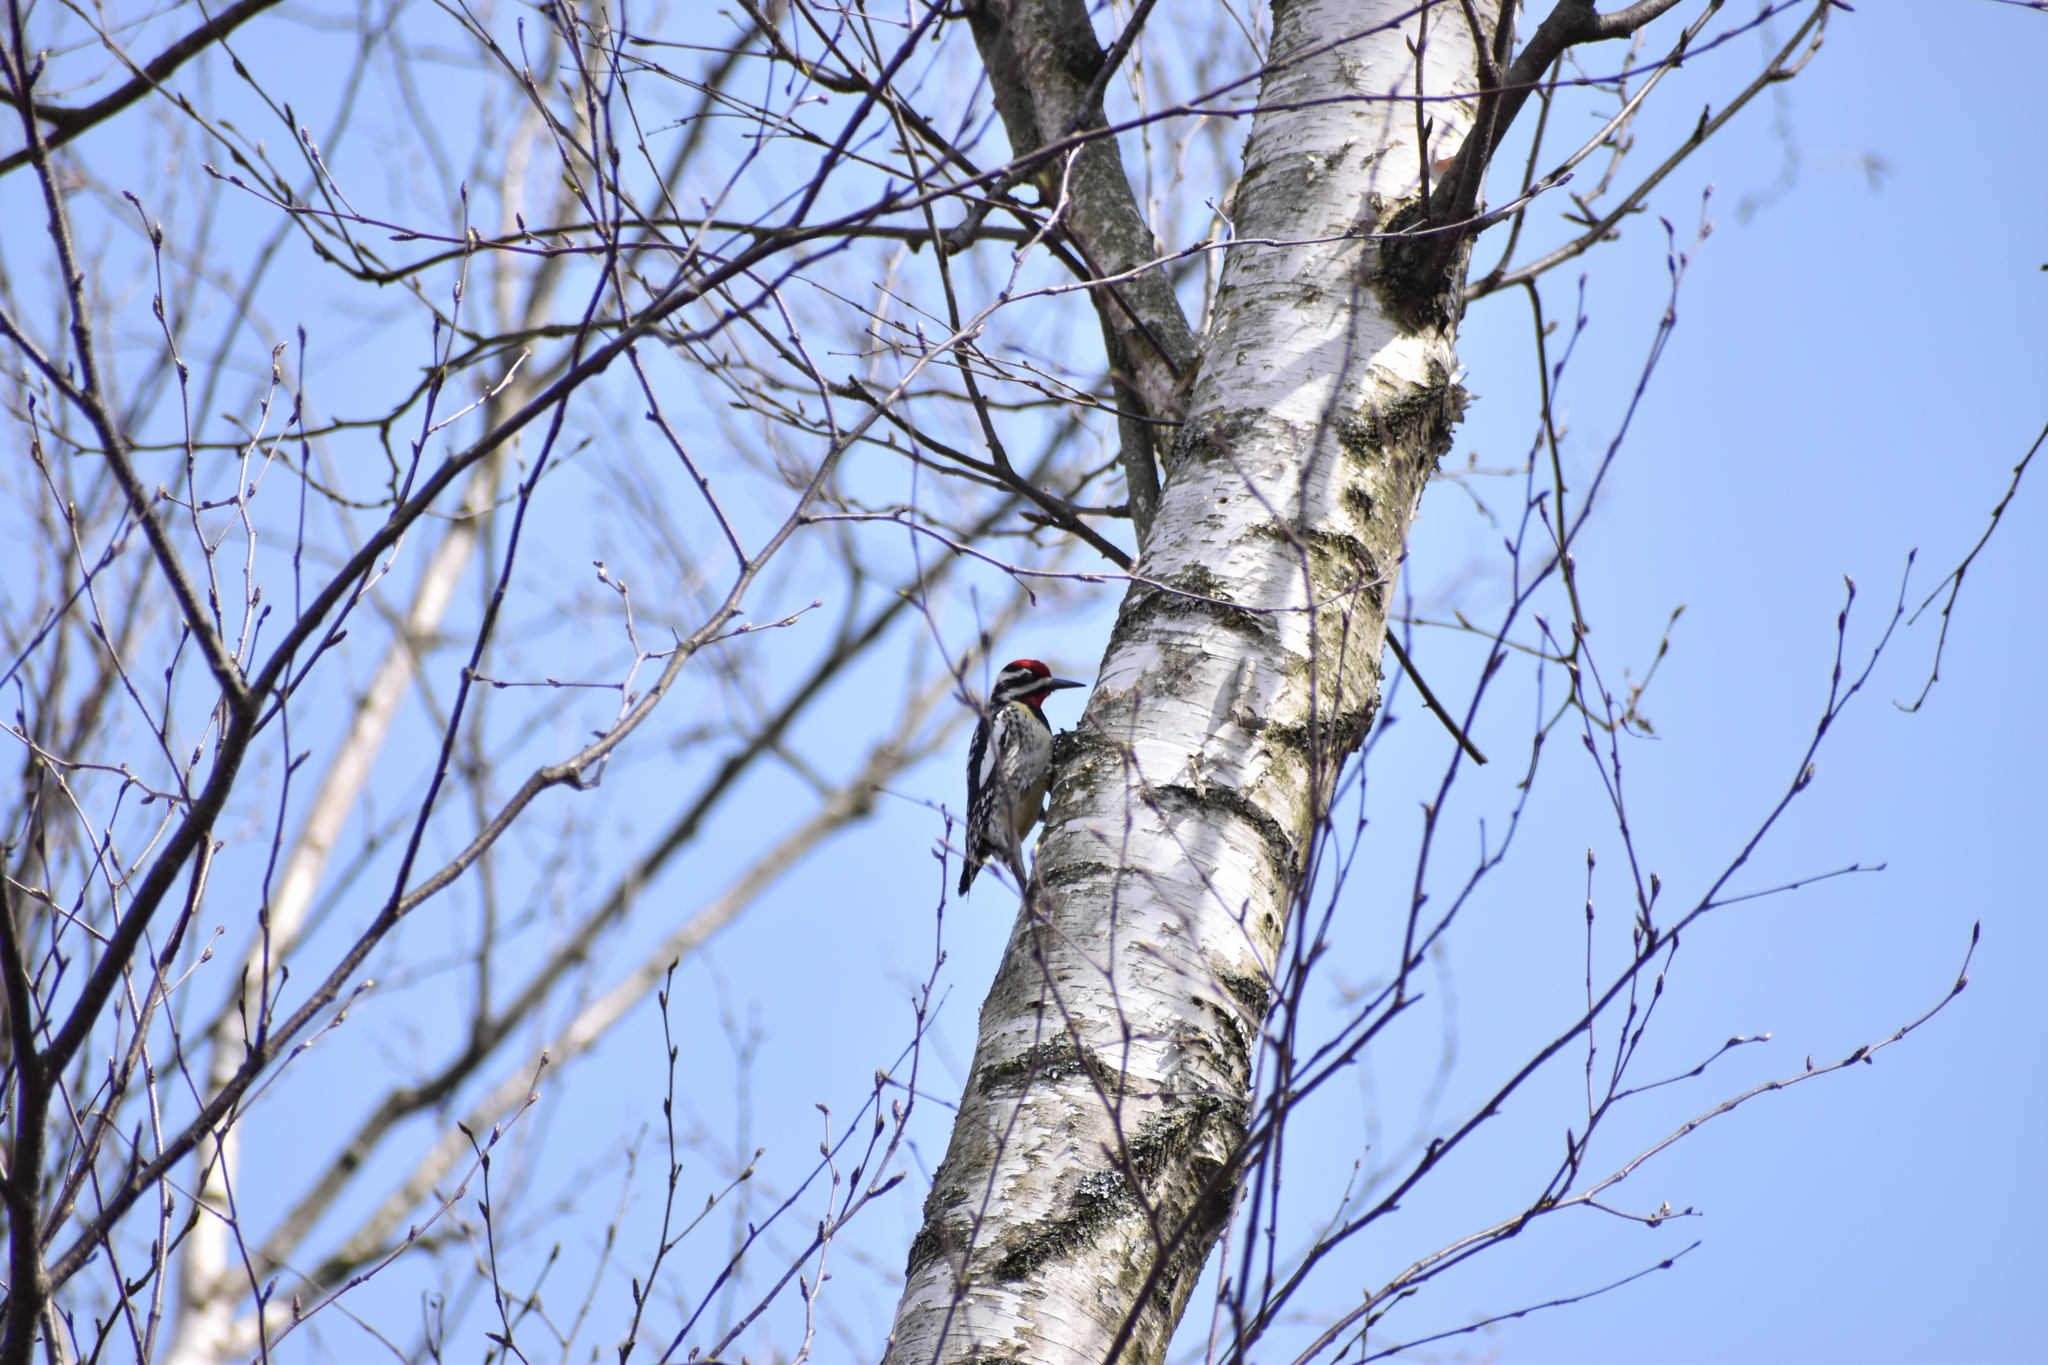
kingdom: Animalia
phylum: Chordata
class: Aves
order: Piciformes
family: Picidae
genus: Sphyrapicus
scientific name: Sphyrapicus varius
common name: Yellow-bellied sapsucker
